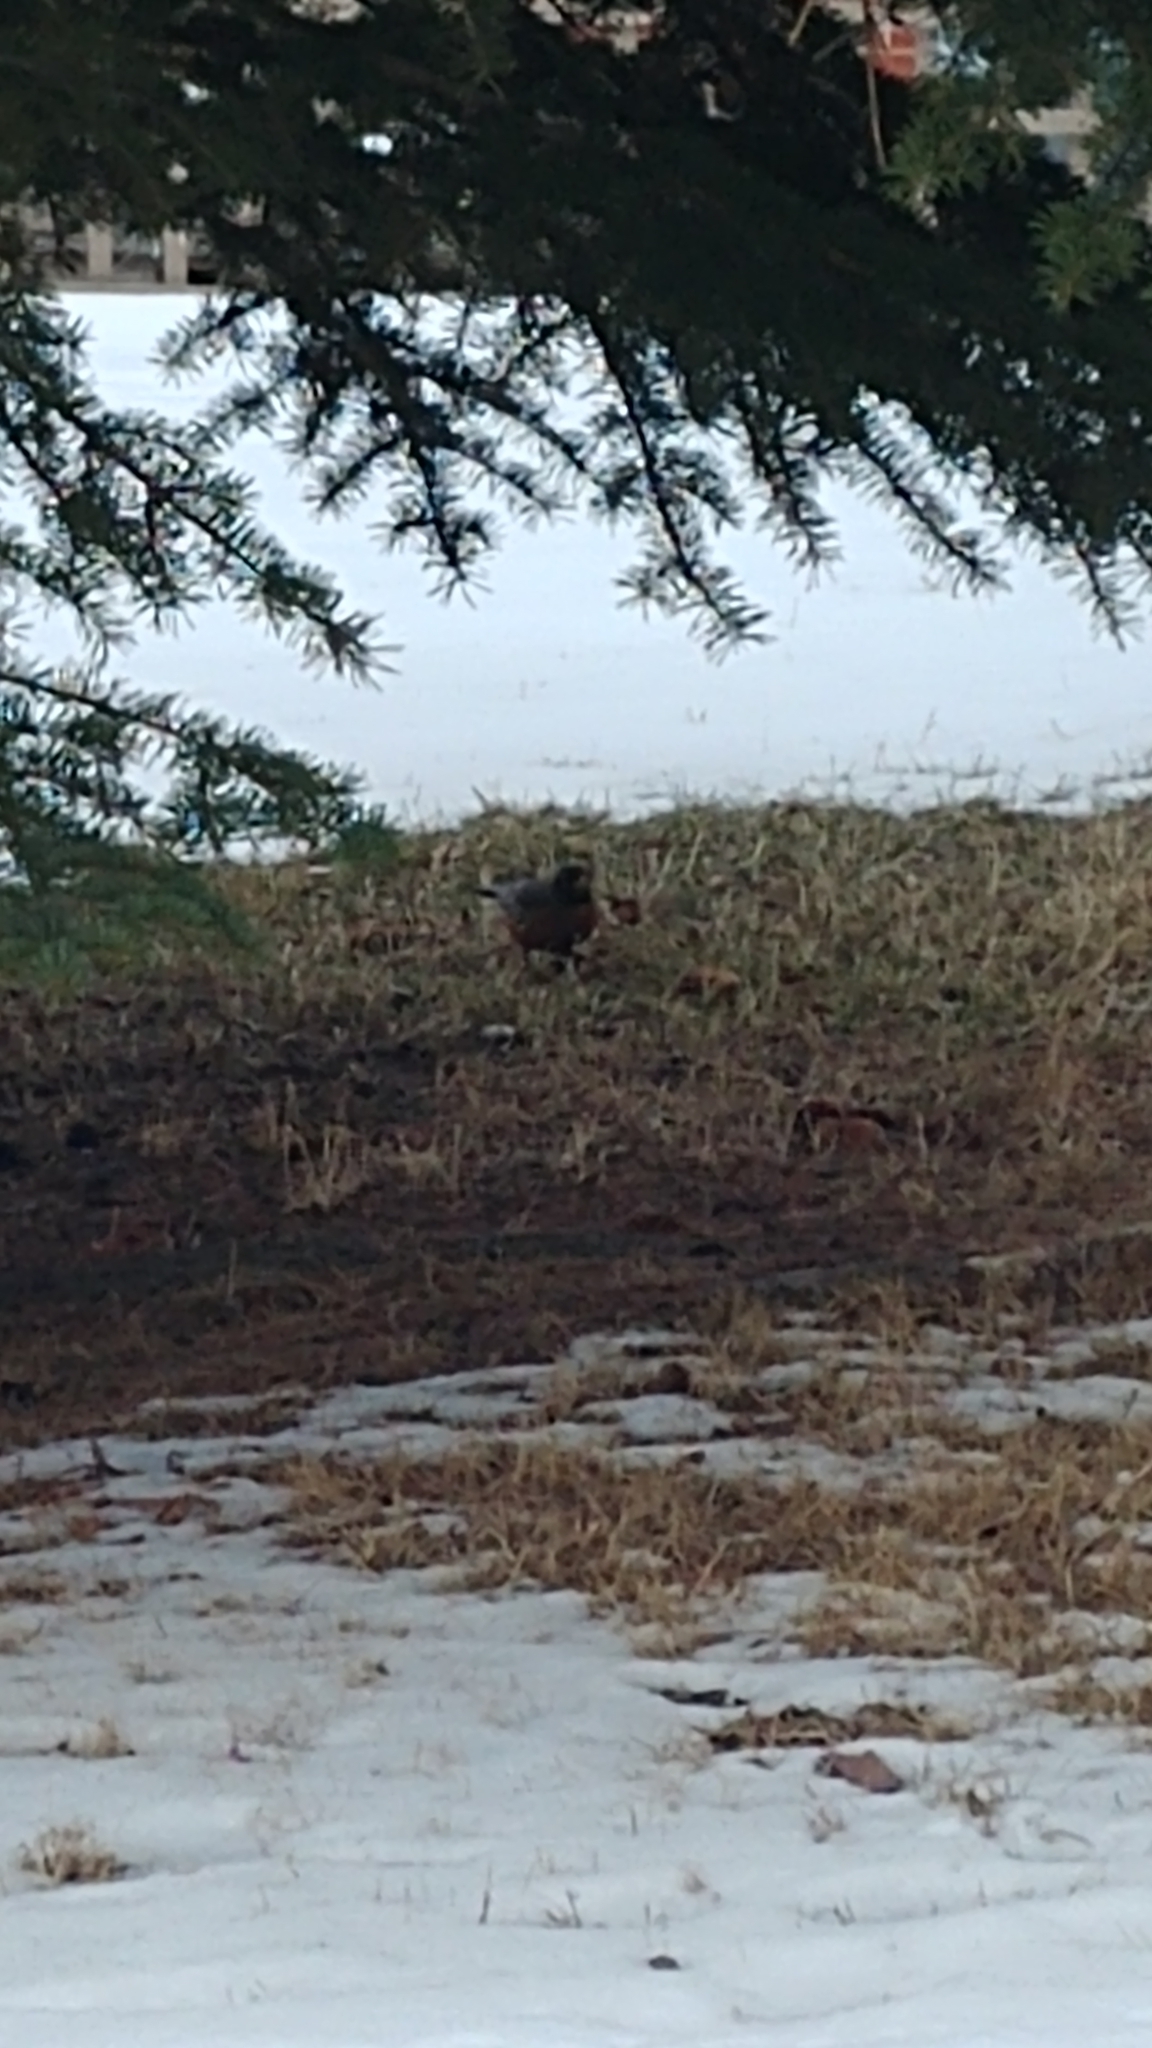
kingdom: Animalia
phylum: Chordata
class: Aves
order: Passeriformes
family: Turdidae
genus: Turdus
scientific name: Turdus migratorius
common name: American robin
